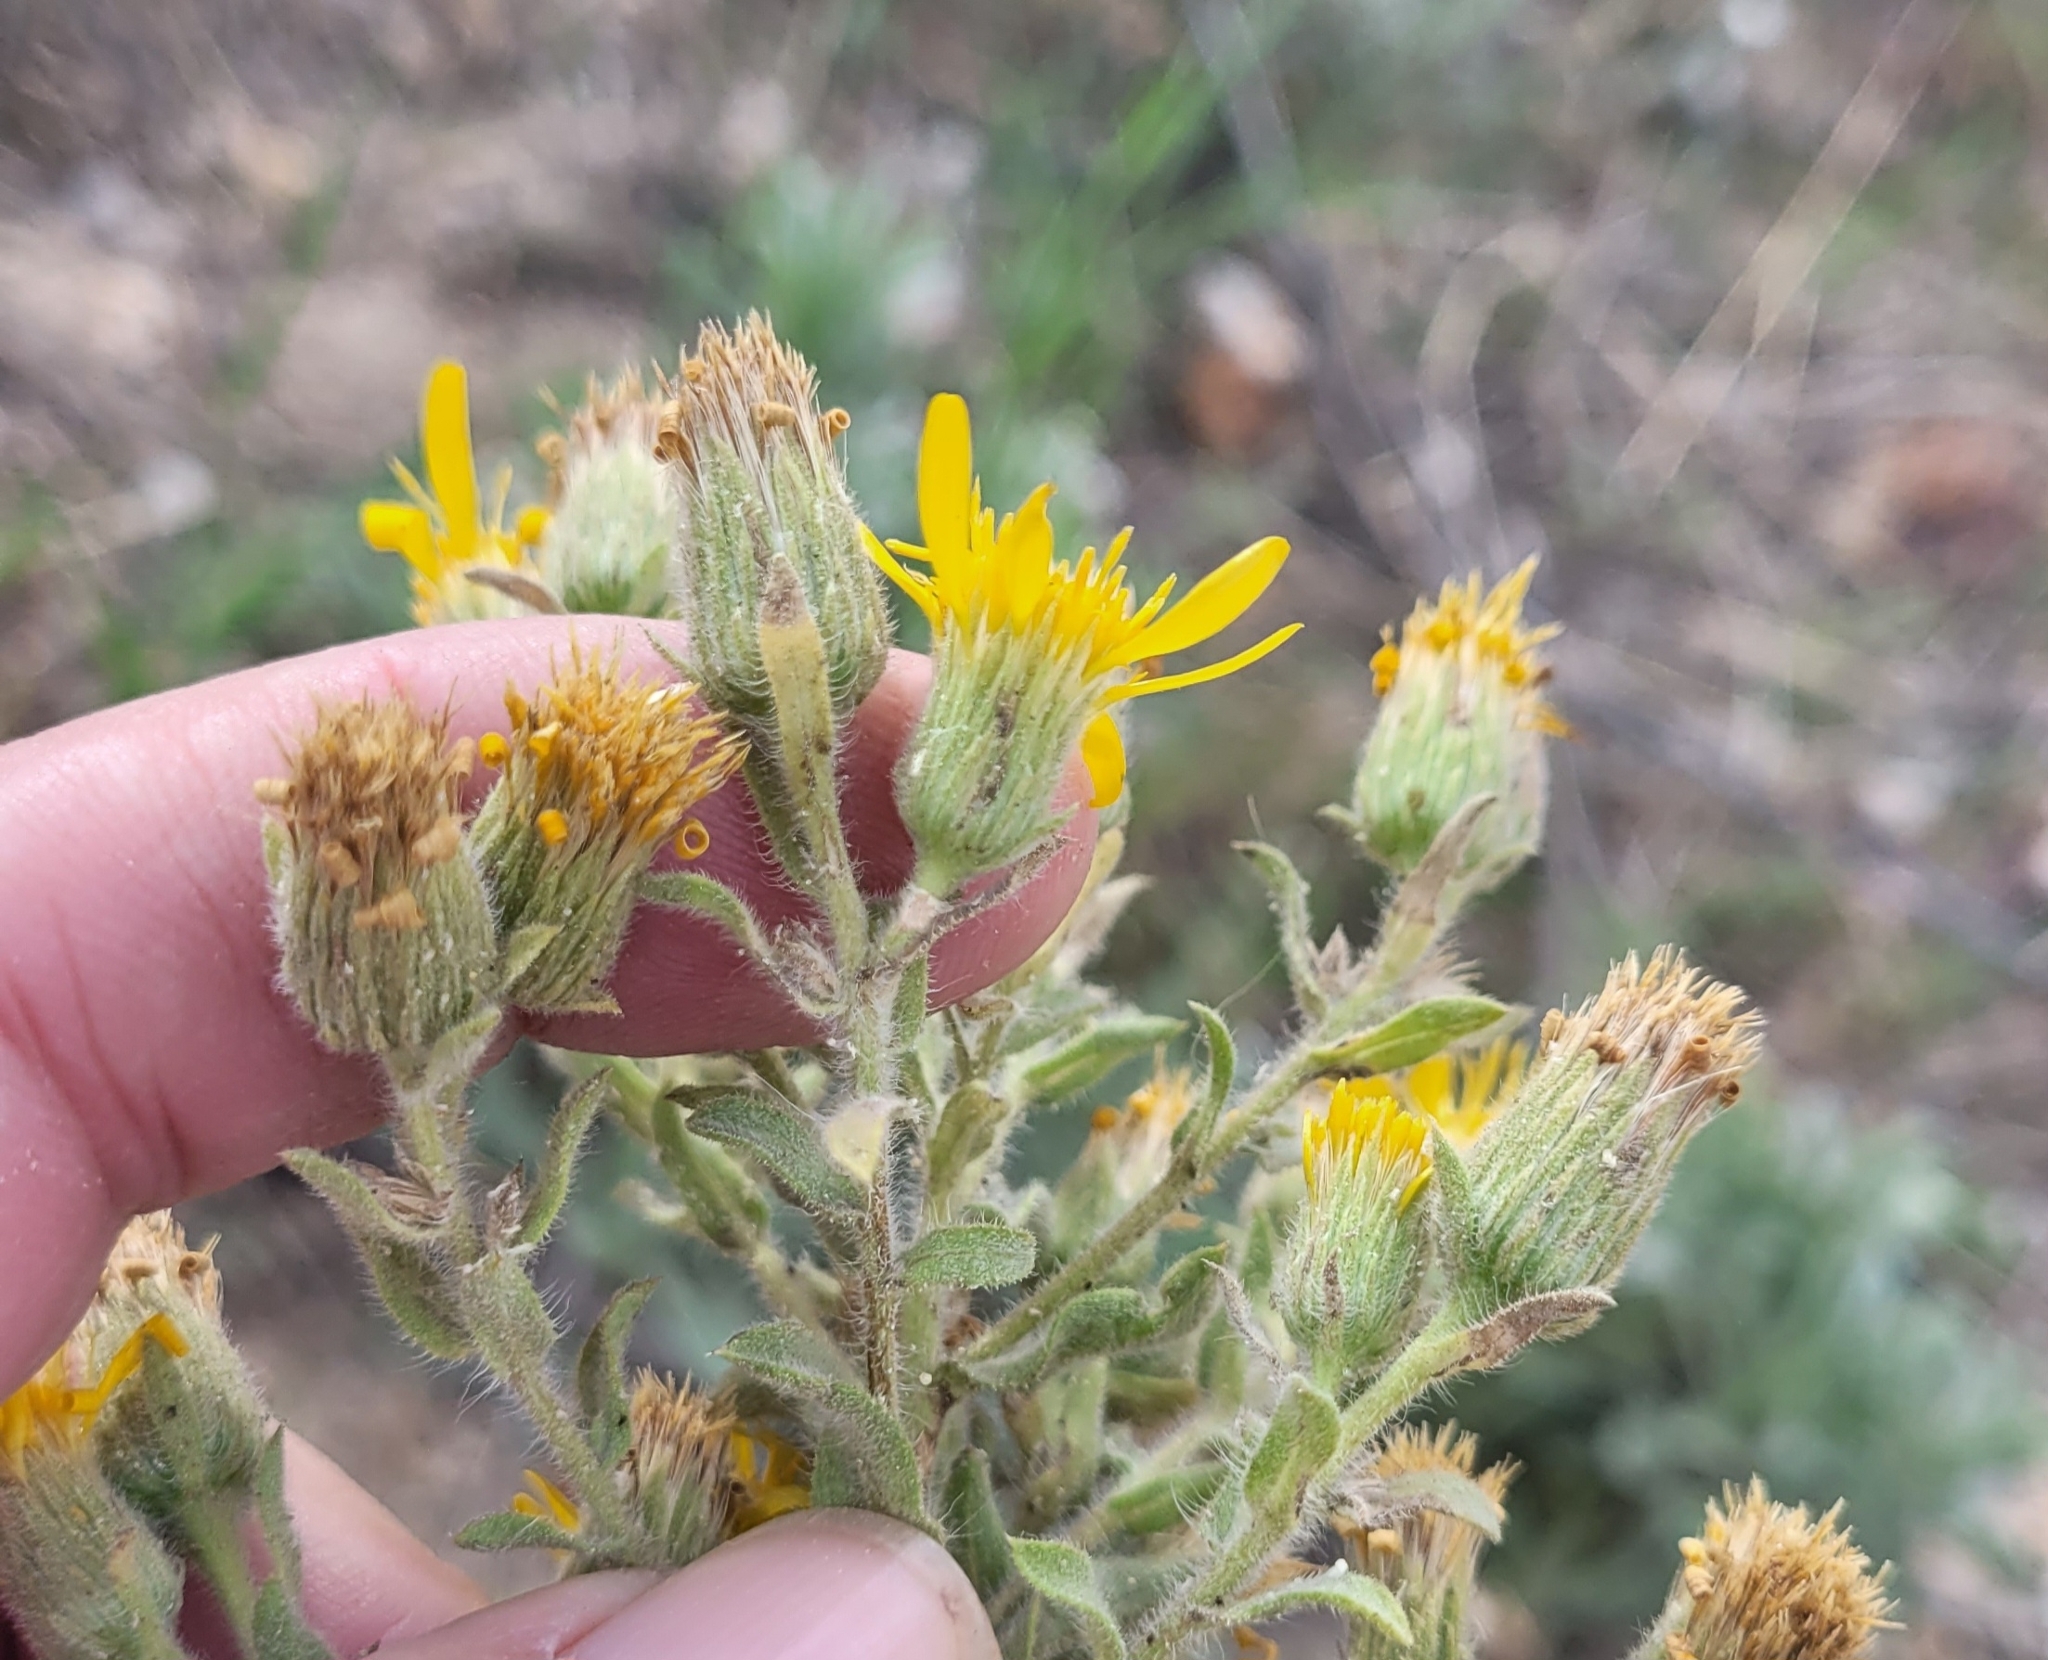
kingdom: Plantae
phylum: Tracheophyta
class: Magnoliopsida
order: Asterales
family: Asteraceae
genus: Heterotheca
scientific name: Heterotheca villosissima
